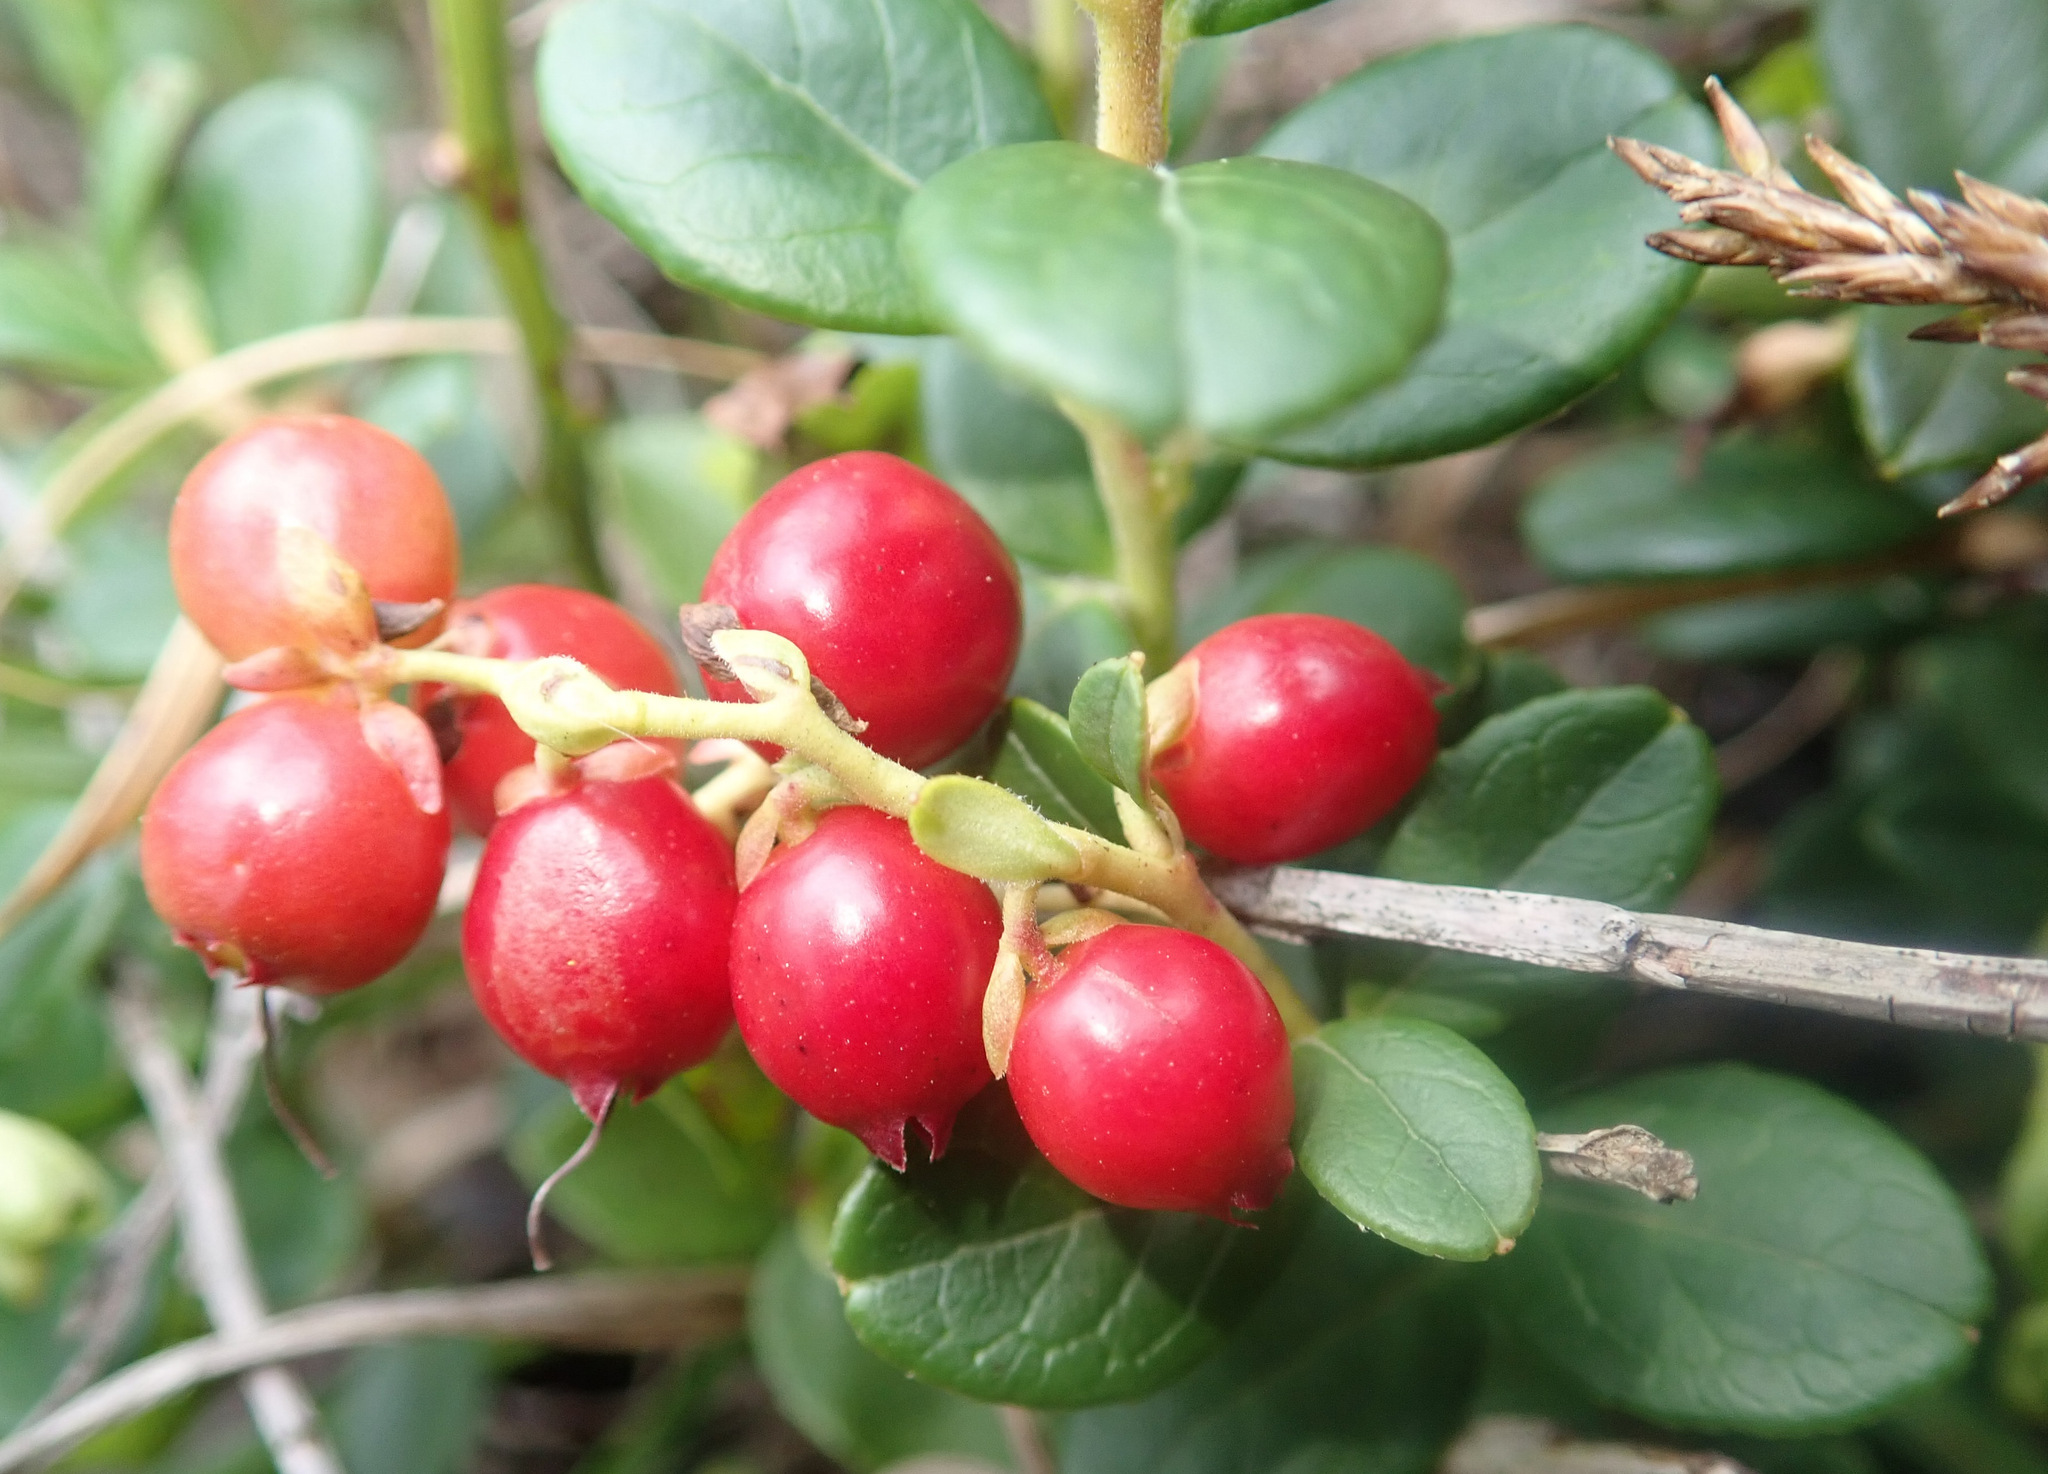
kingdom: Plantae
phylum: Tracheophyta
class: Magnoliopsida
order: Ericales
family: Ericaceae
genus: Vaccinium
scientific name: Vaccinium vitis-idaea
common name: Cowberry
